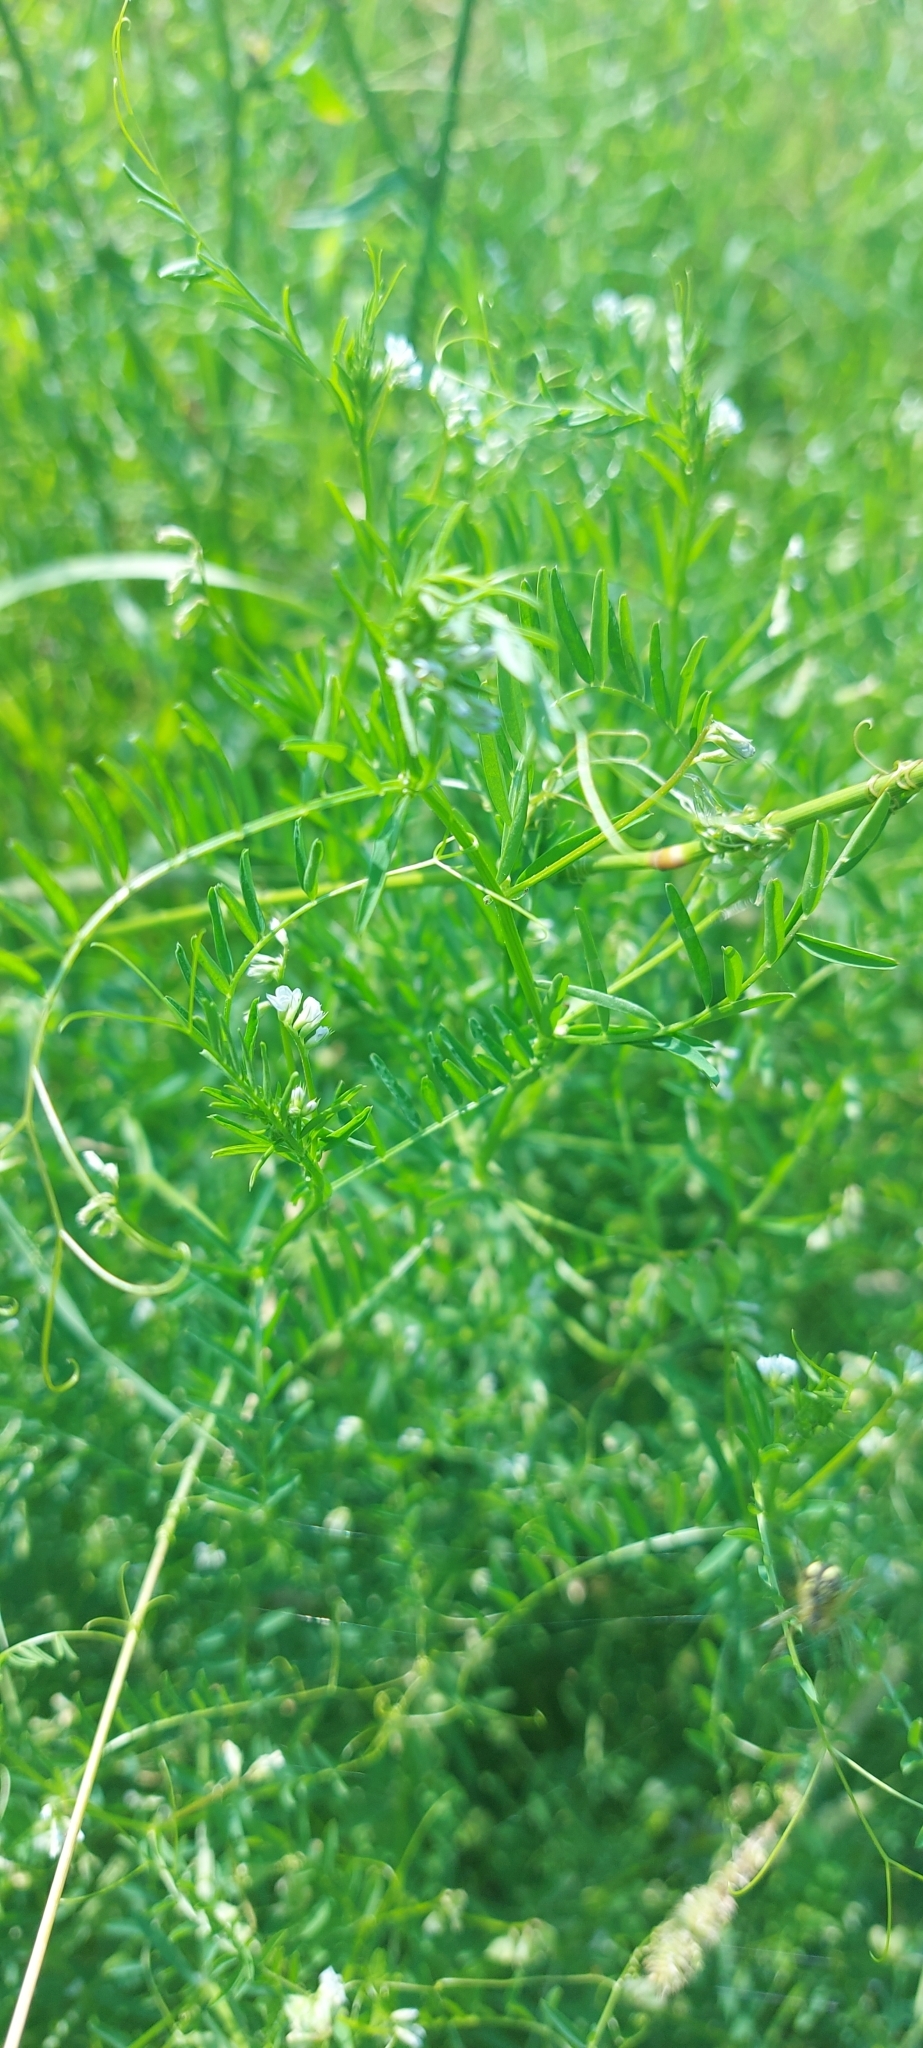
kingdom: Plantae
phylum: Tracheophyta
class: Magnoliopsida
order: Fabales
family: Fabaceae
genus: Vicia
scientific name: Vicia hirsuta
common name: Tiny vetch
